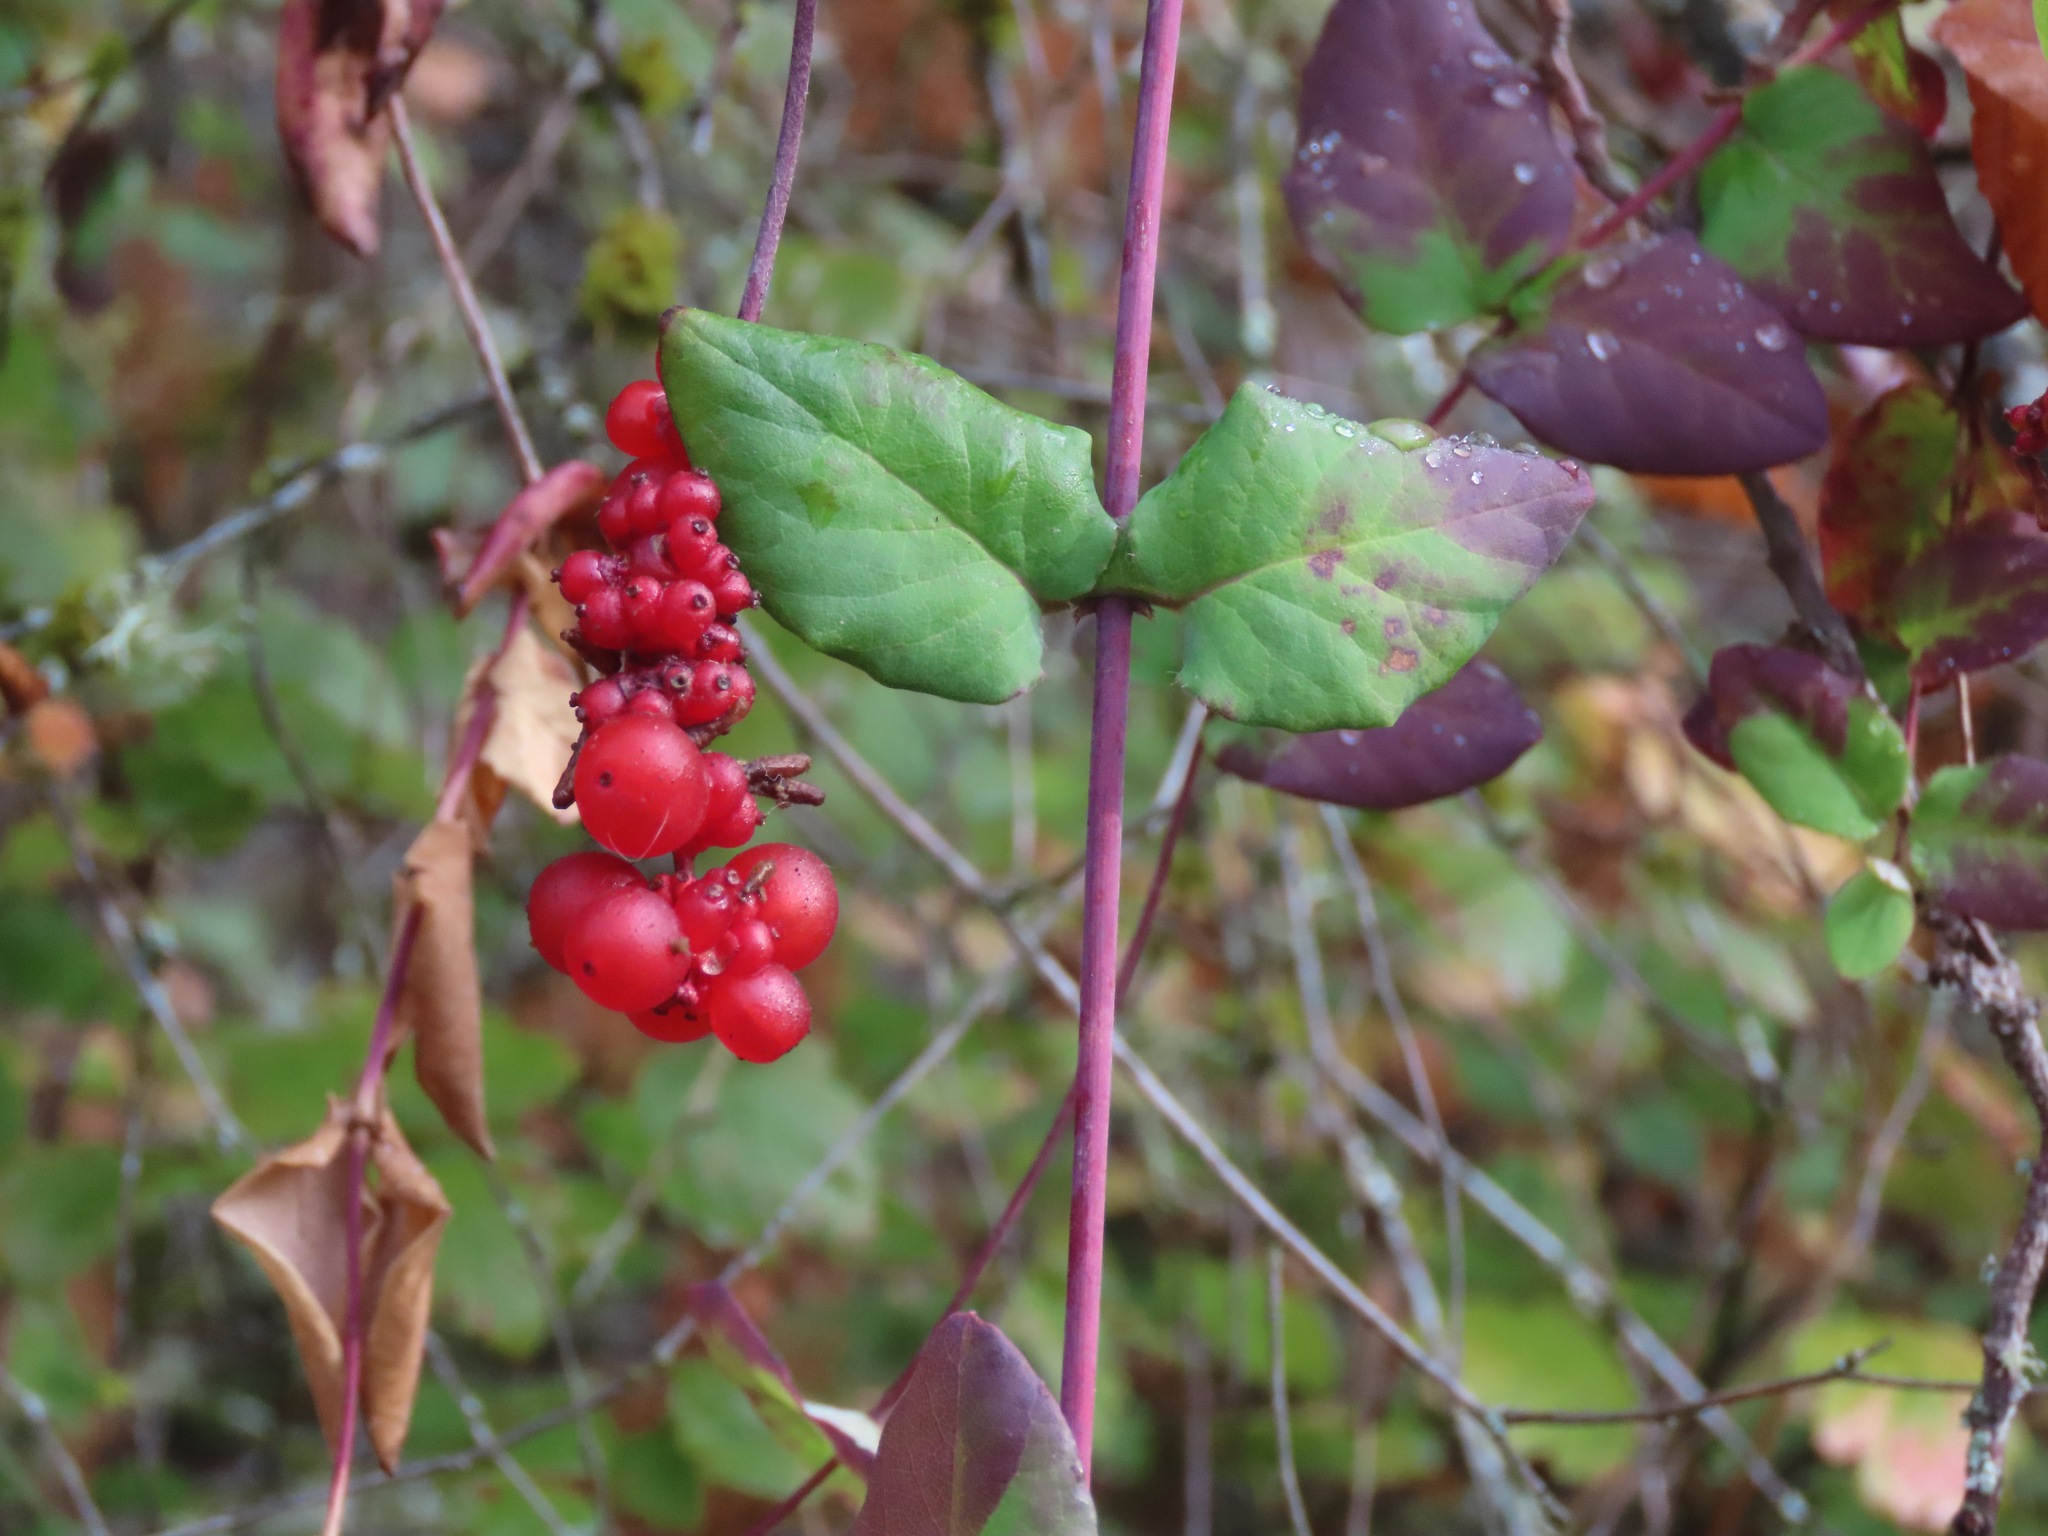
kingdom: Plantae
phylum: Tracheophyta
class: Magnoliopsida
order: Dipsacales
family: Caprifoliaceae
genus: Lonicera
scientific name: Lonicera hispidula
